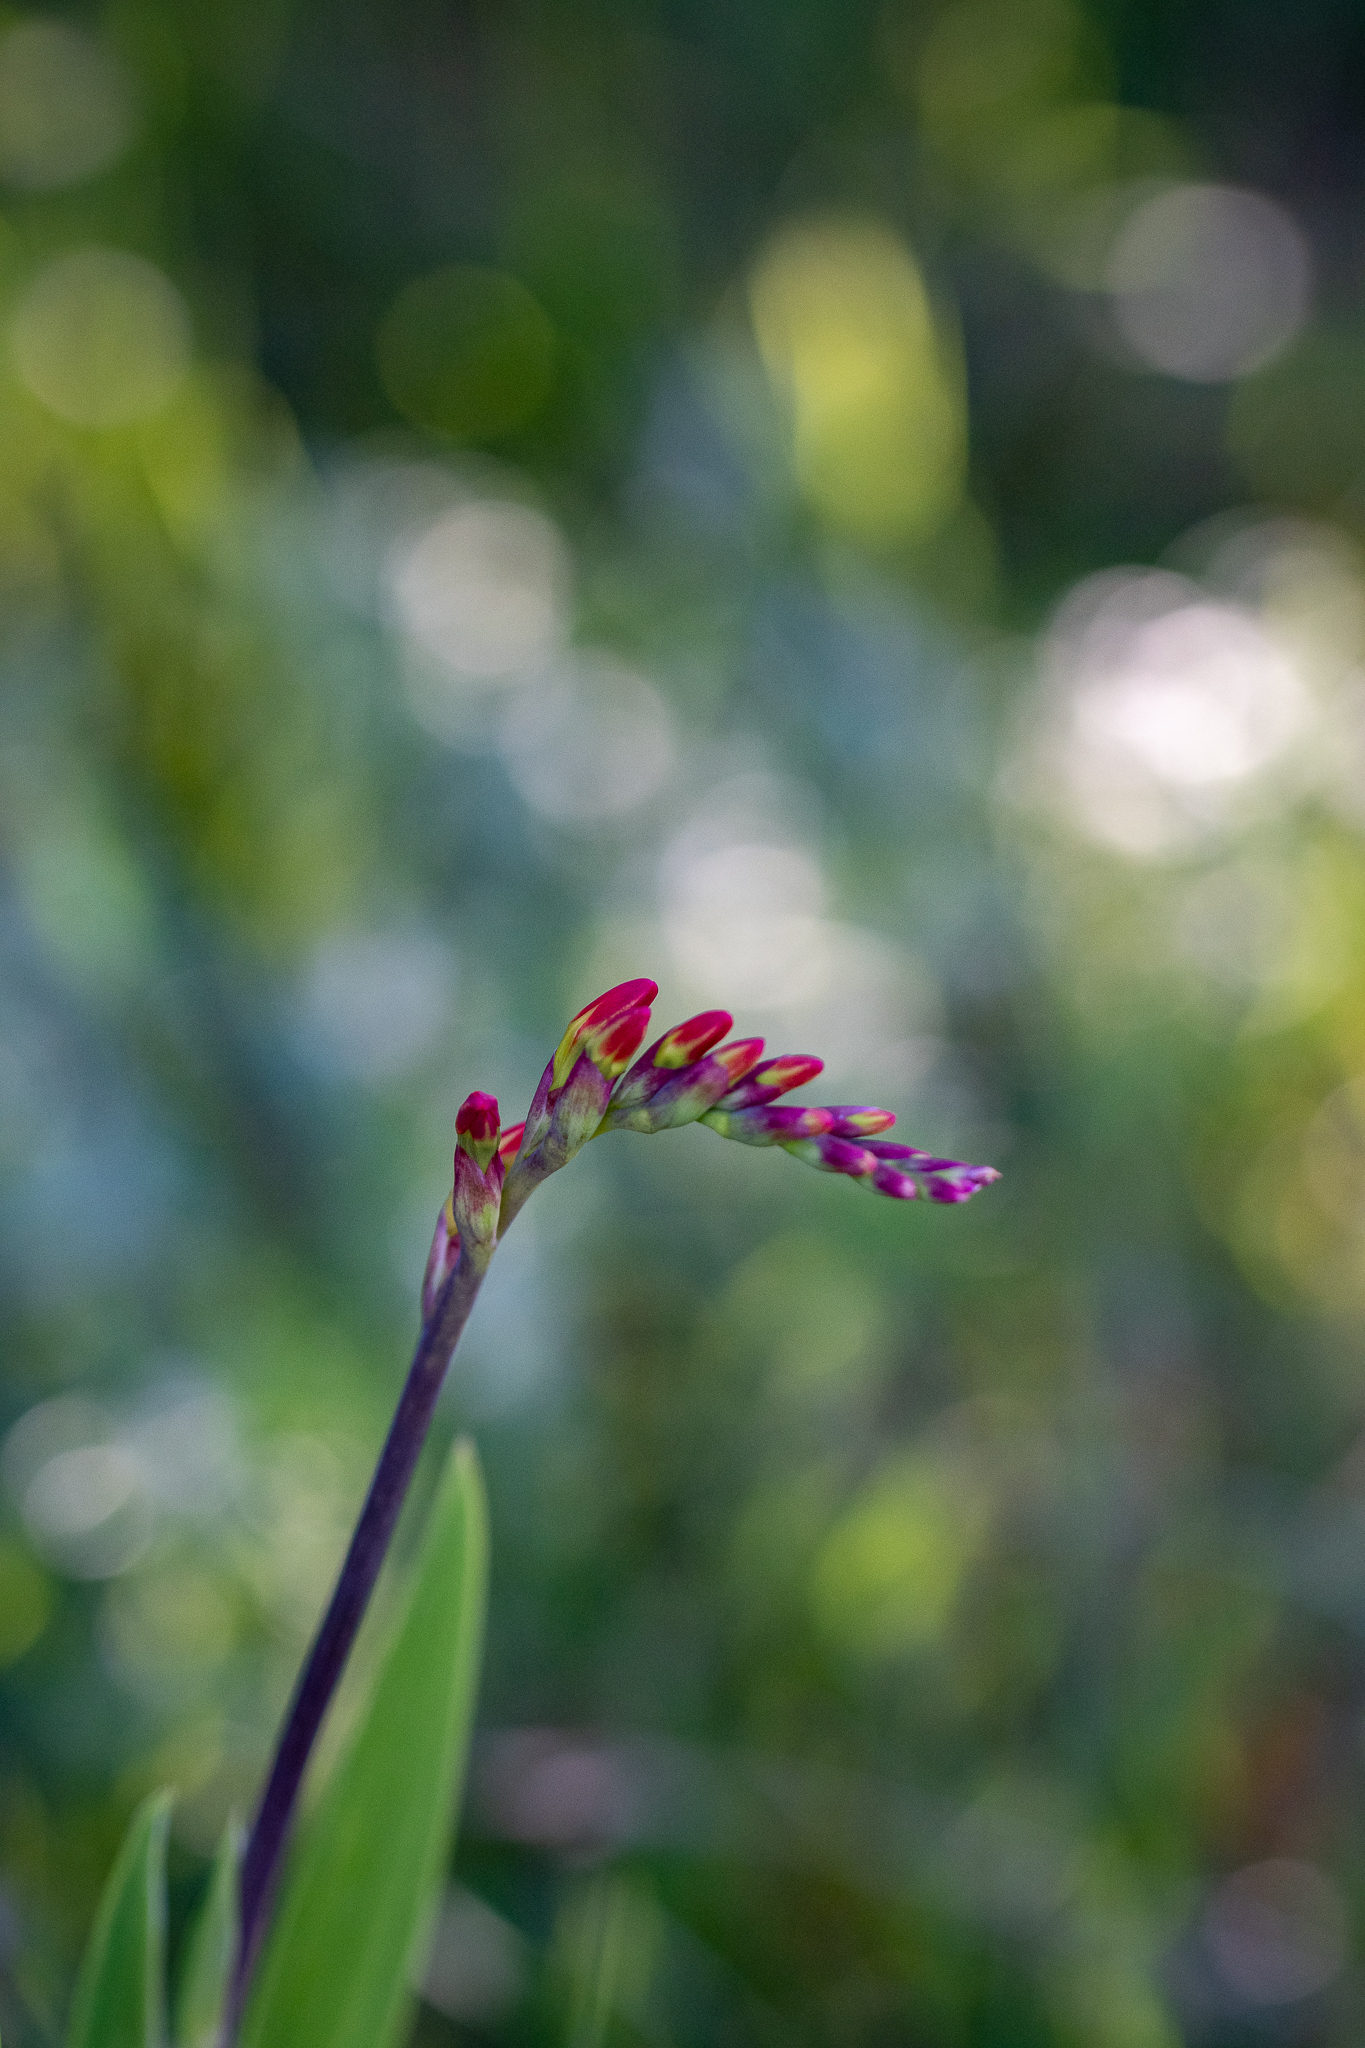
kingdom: Plantae
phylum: Tracheophyta
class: Liliopsida
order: Asparagales
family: Iridaceae
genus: Chasmanthe
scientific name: Chasmanthe aethiopica
